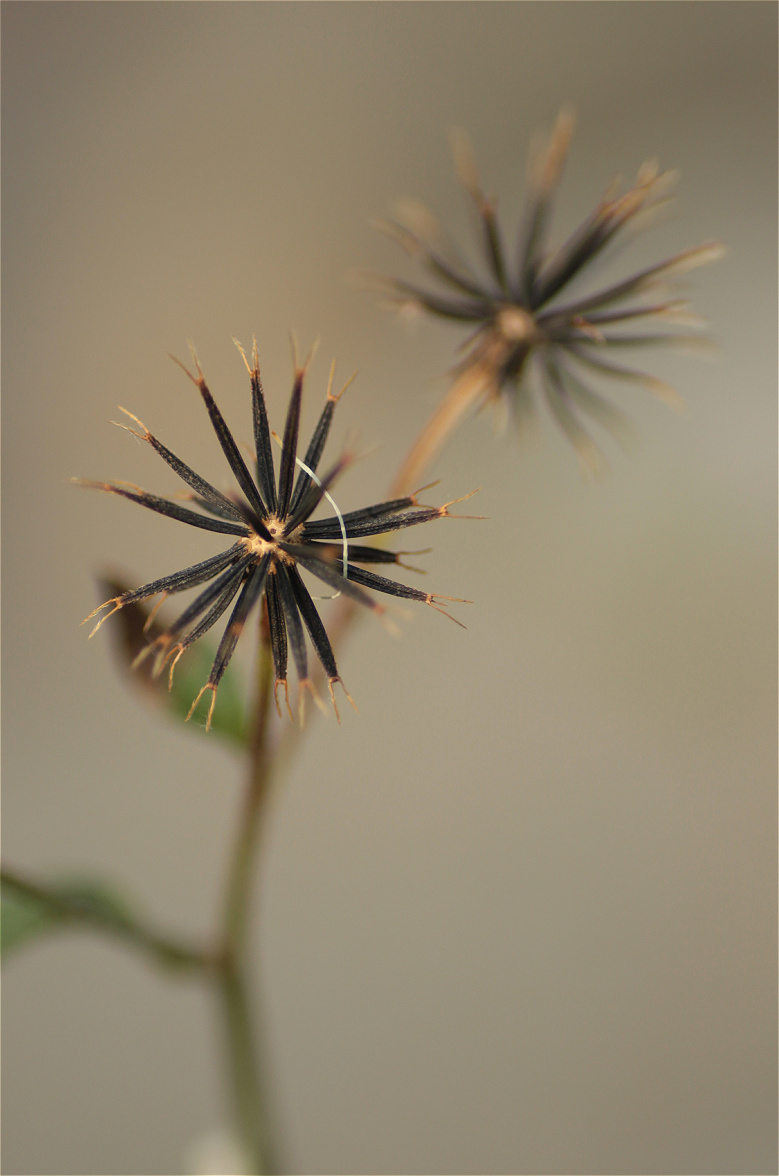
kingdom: Plantae
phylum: Tracheophyta
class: Magnoliopsida
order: Asterales
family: Asteraceae
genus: Bidens
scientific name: Bidens alba
